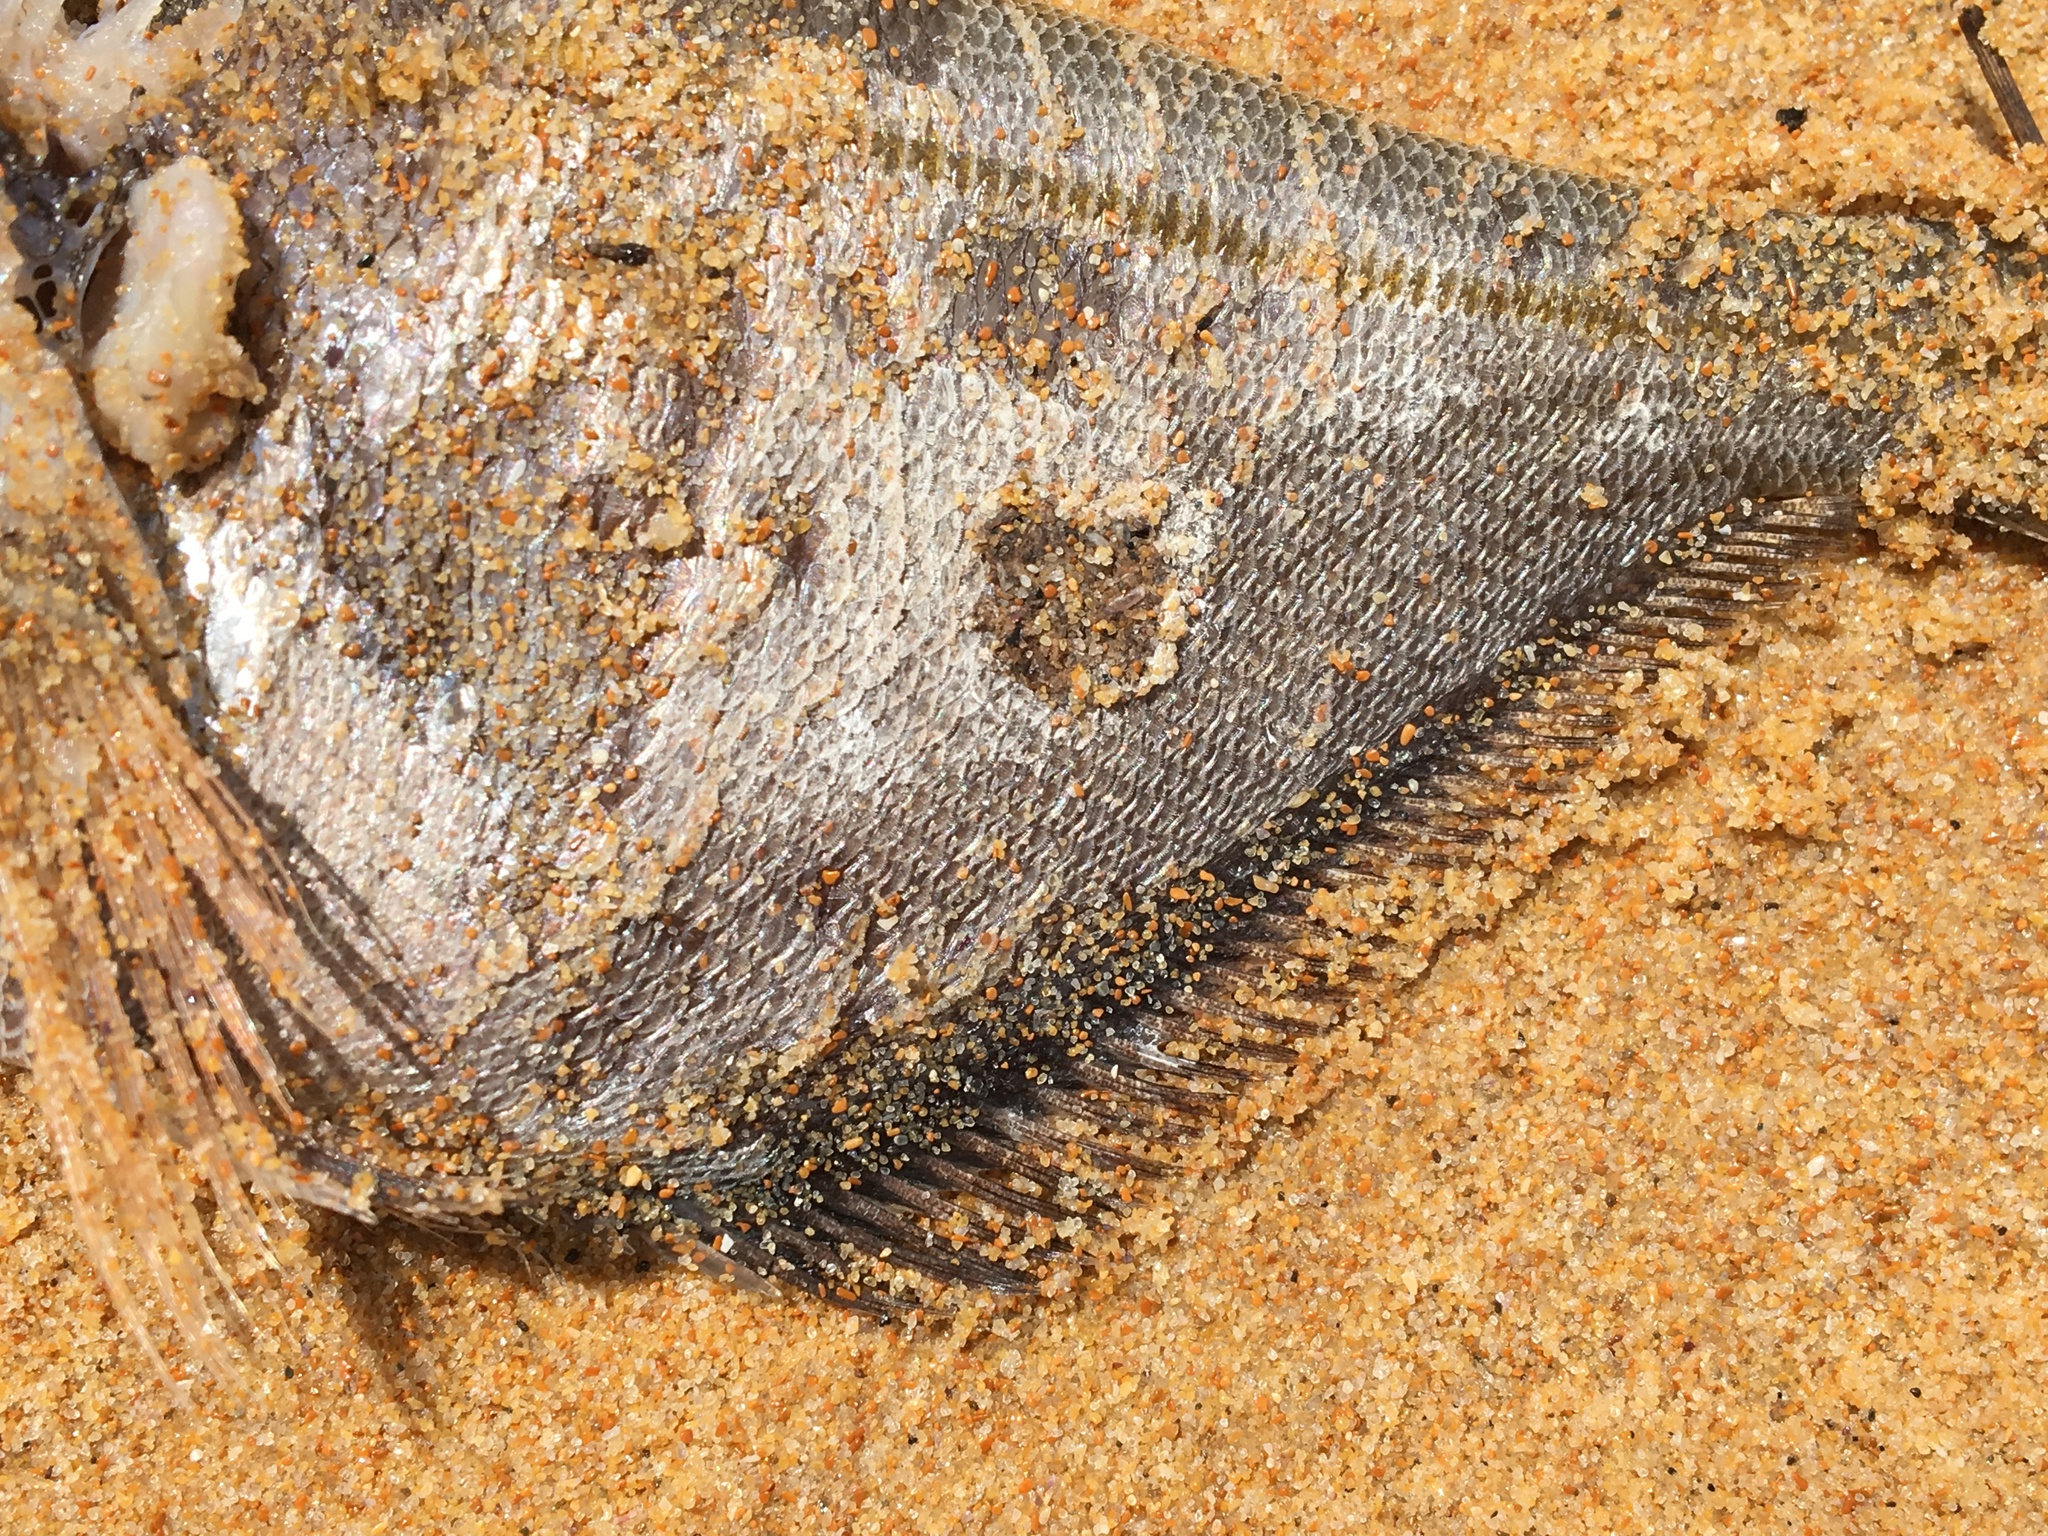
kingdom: Animalia
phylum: Chordata
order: Perciformes
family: Pempheridae
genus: Pempheris
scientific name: Pempheris compressa
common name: Bulleye
